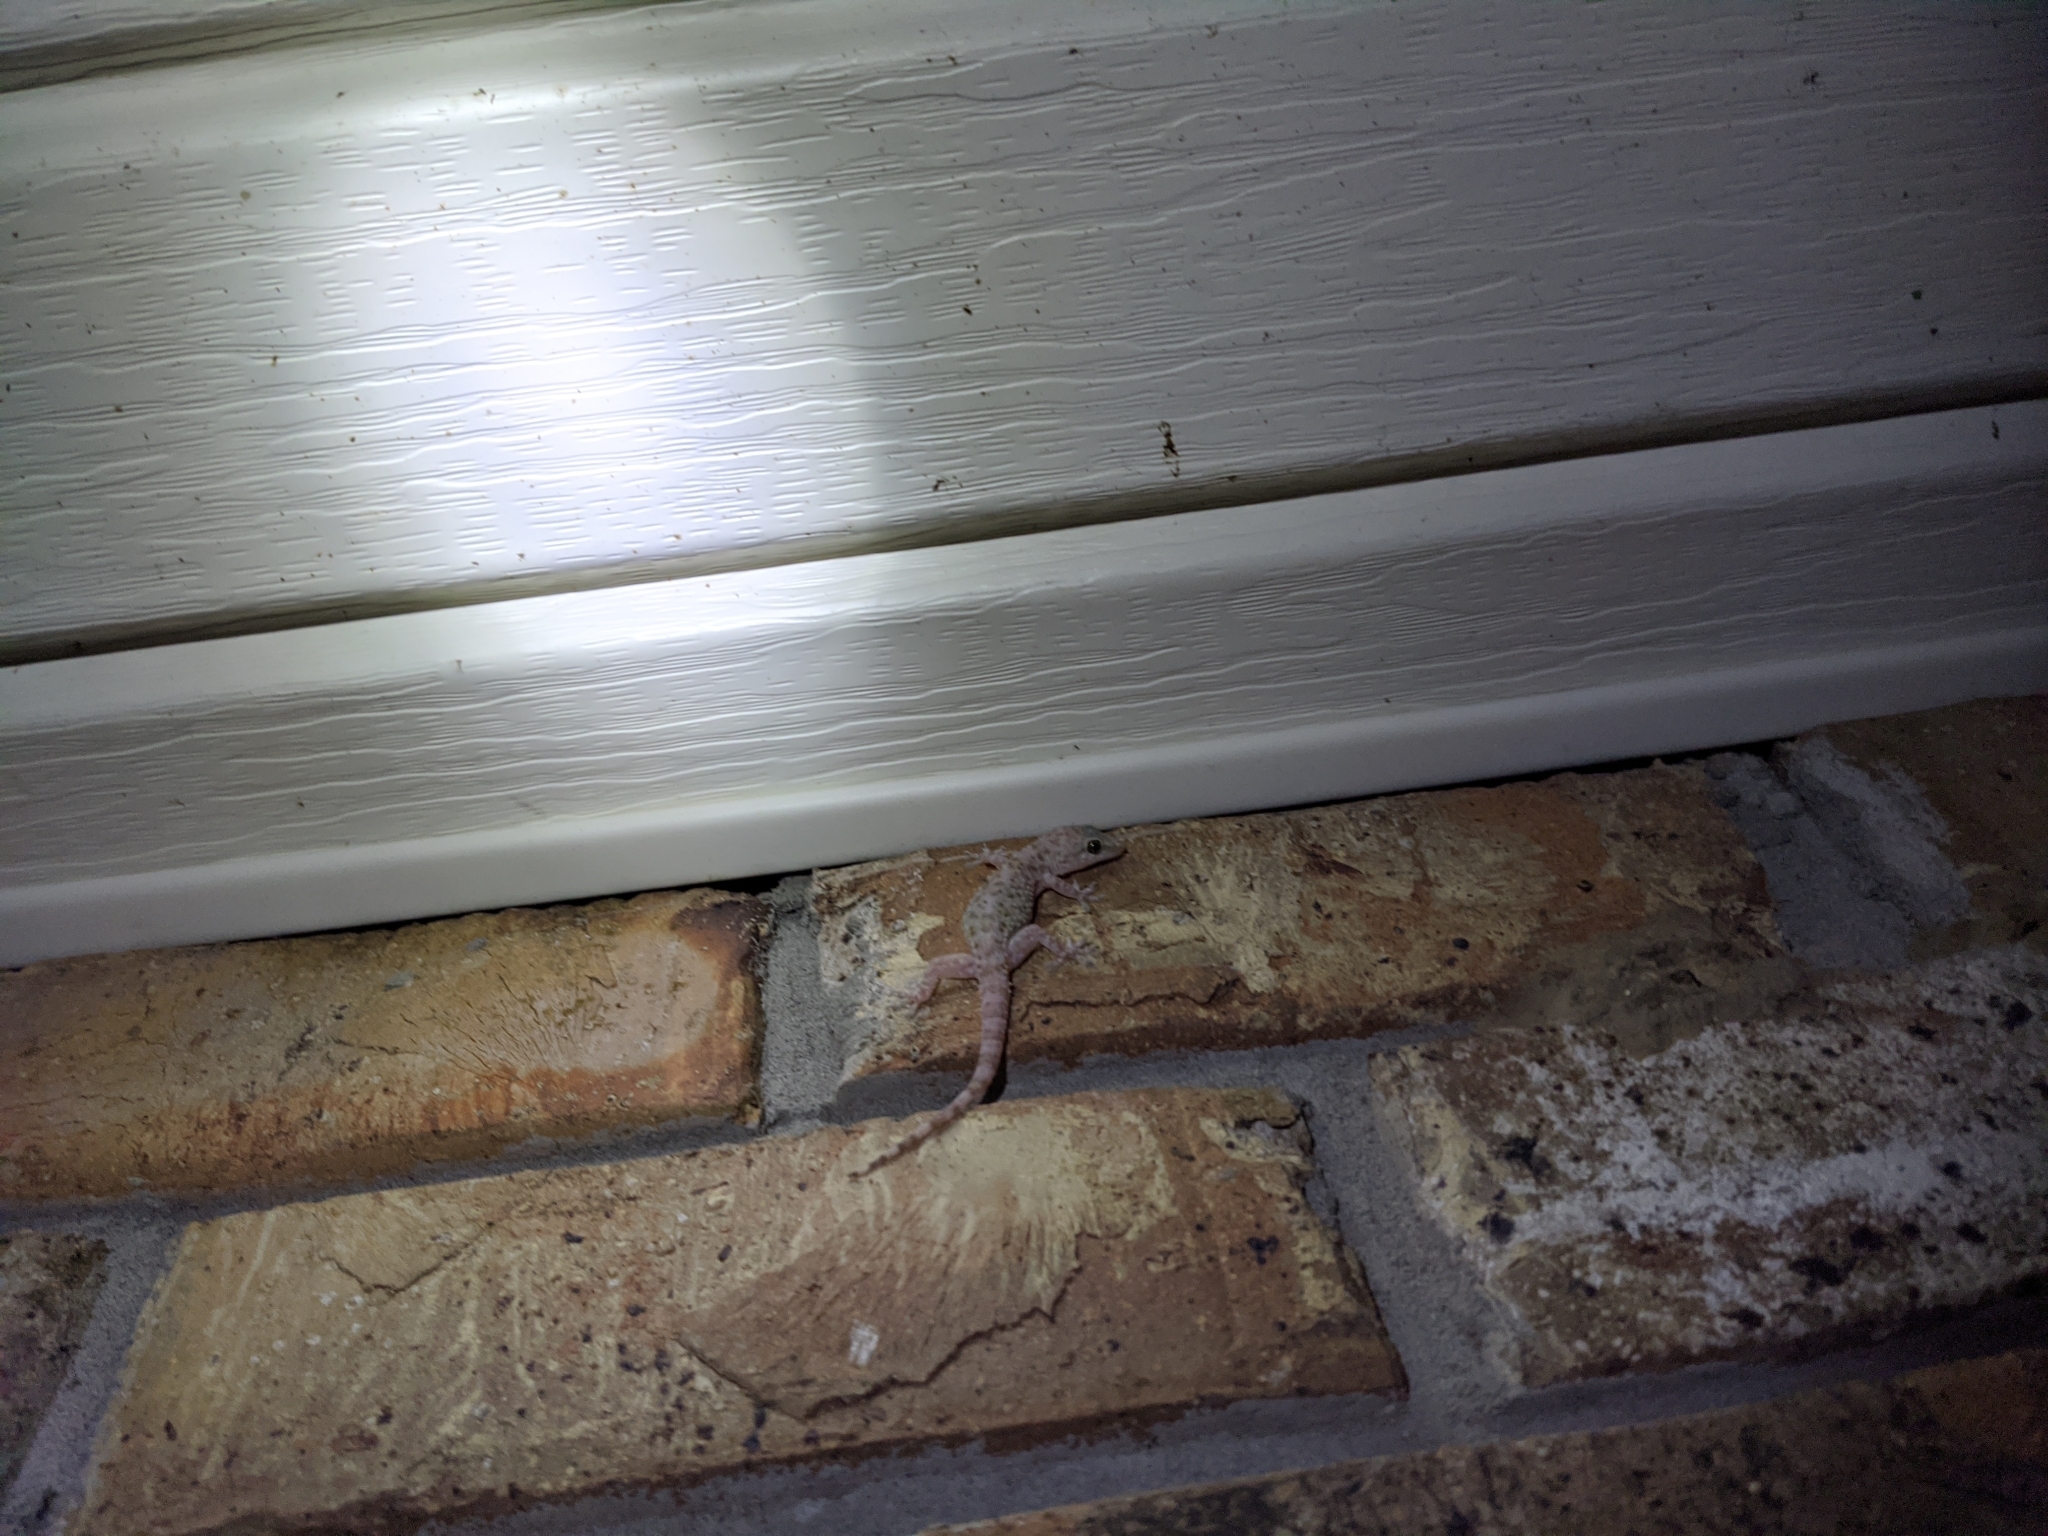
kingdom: Animalia
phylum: Chordata
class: Squamata
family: Gekkonidae
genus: Hemidactylus
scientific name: Hemidactylus turcicus
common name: Turkish gecko
